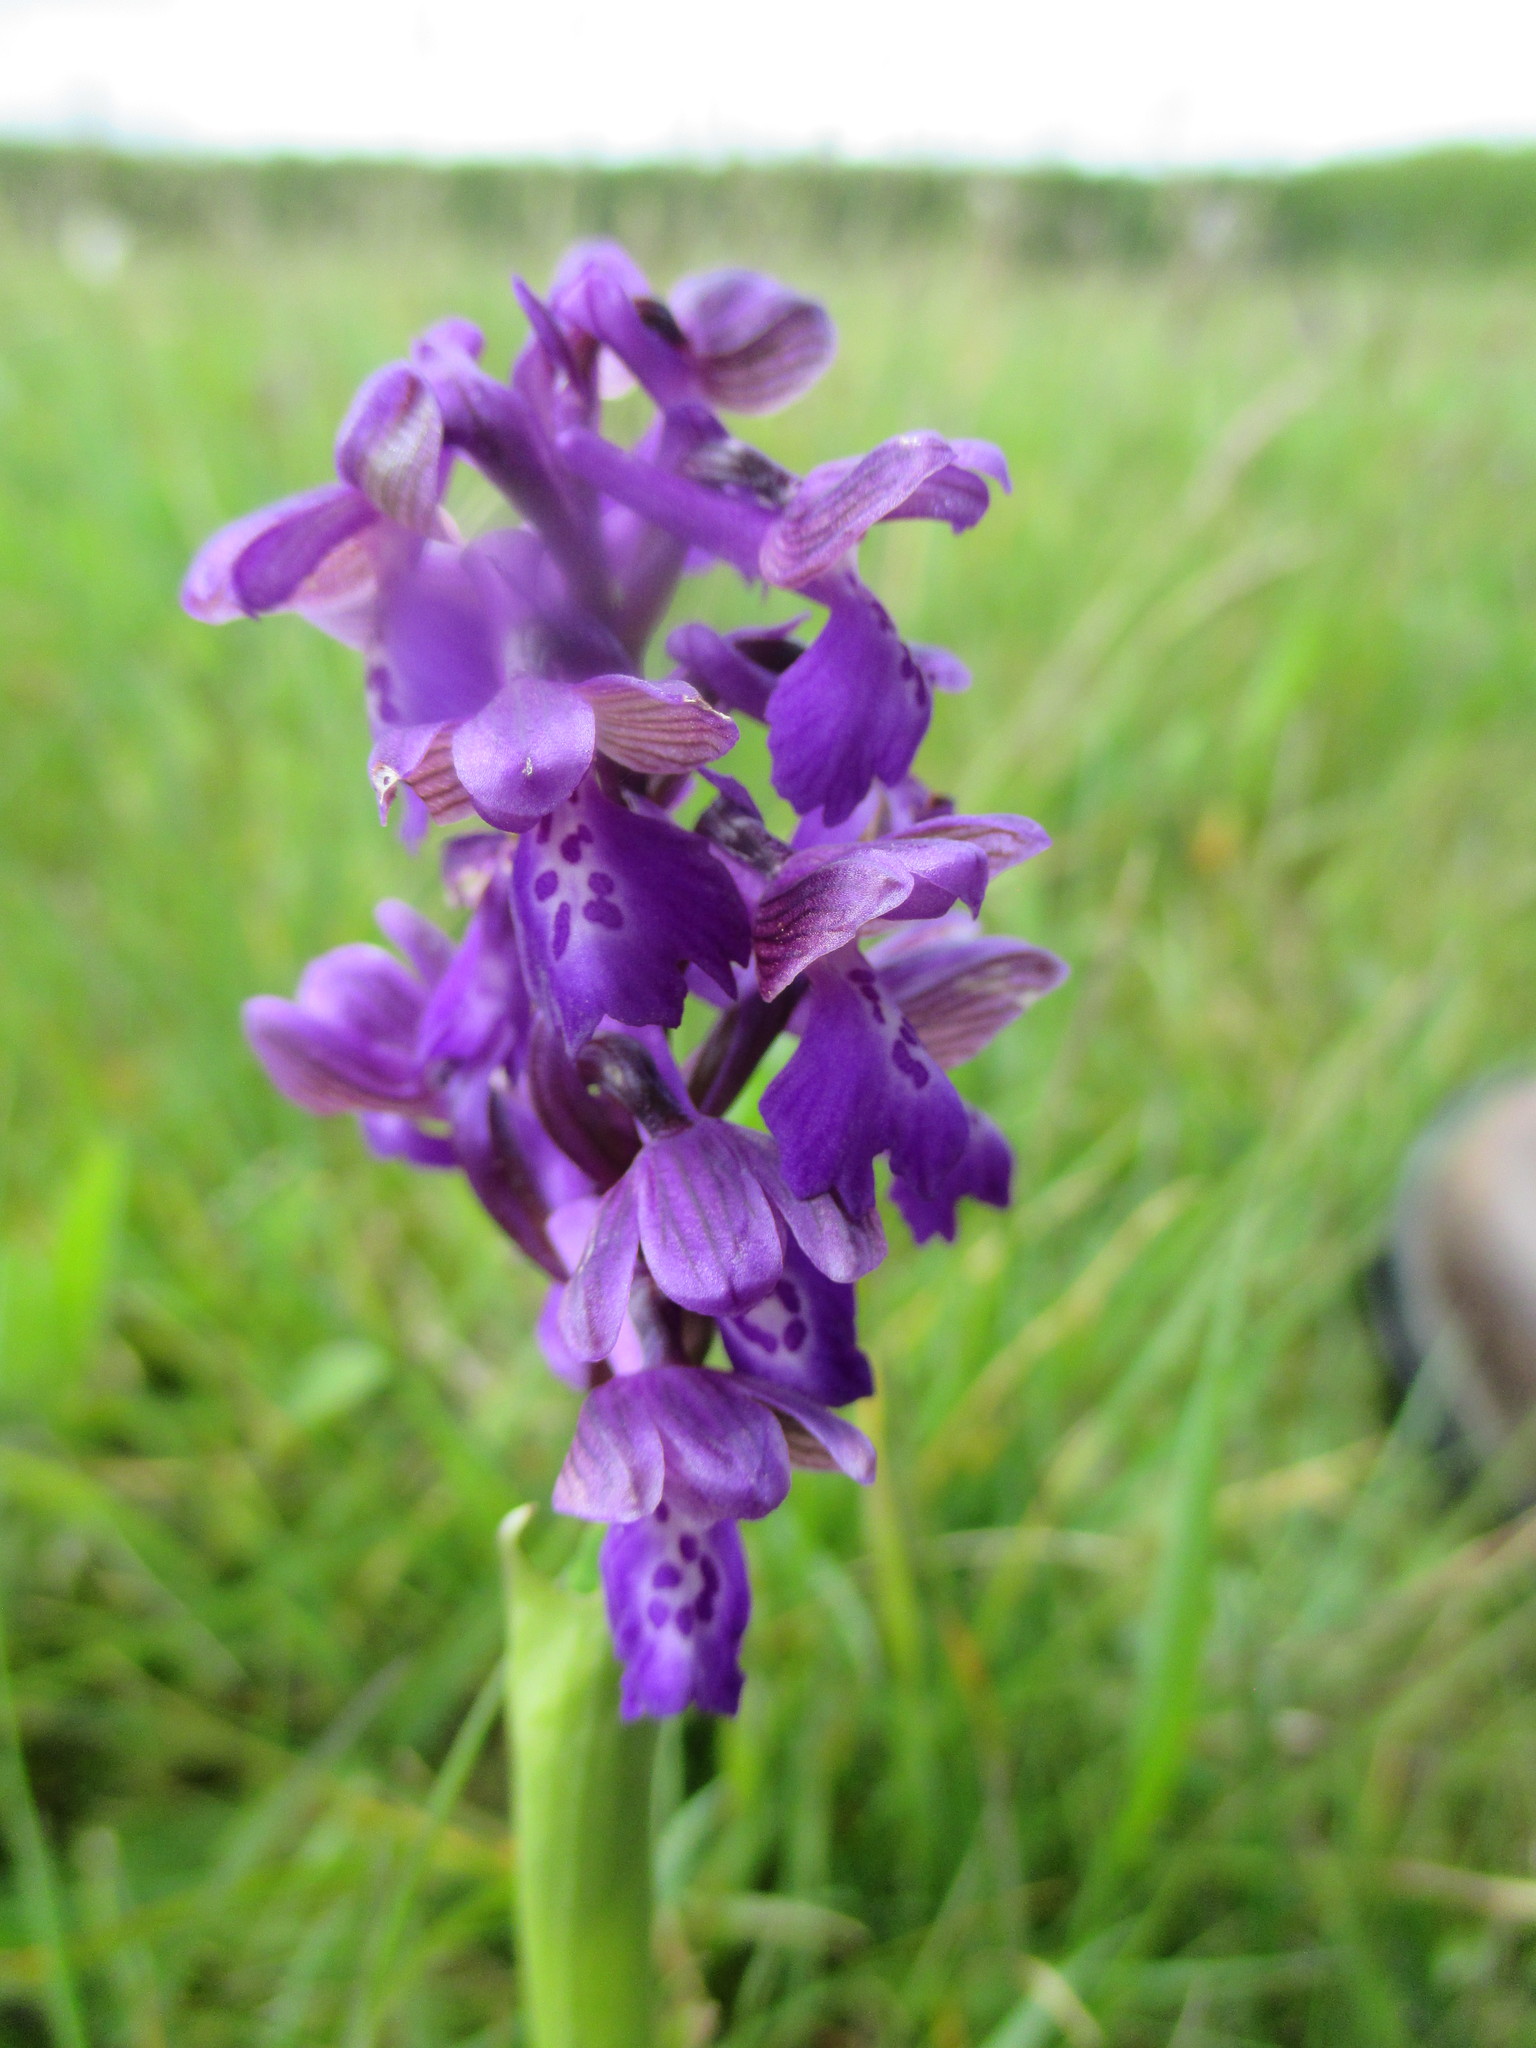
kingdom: Plantae
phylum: Tracheophyta
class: Liliopsida
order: Asparagales
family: Orchidaceae
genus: Anacamptis
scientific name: Anacamptis morio
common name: Green-winged orchid
